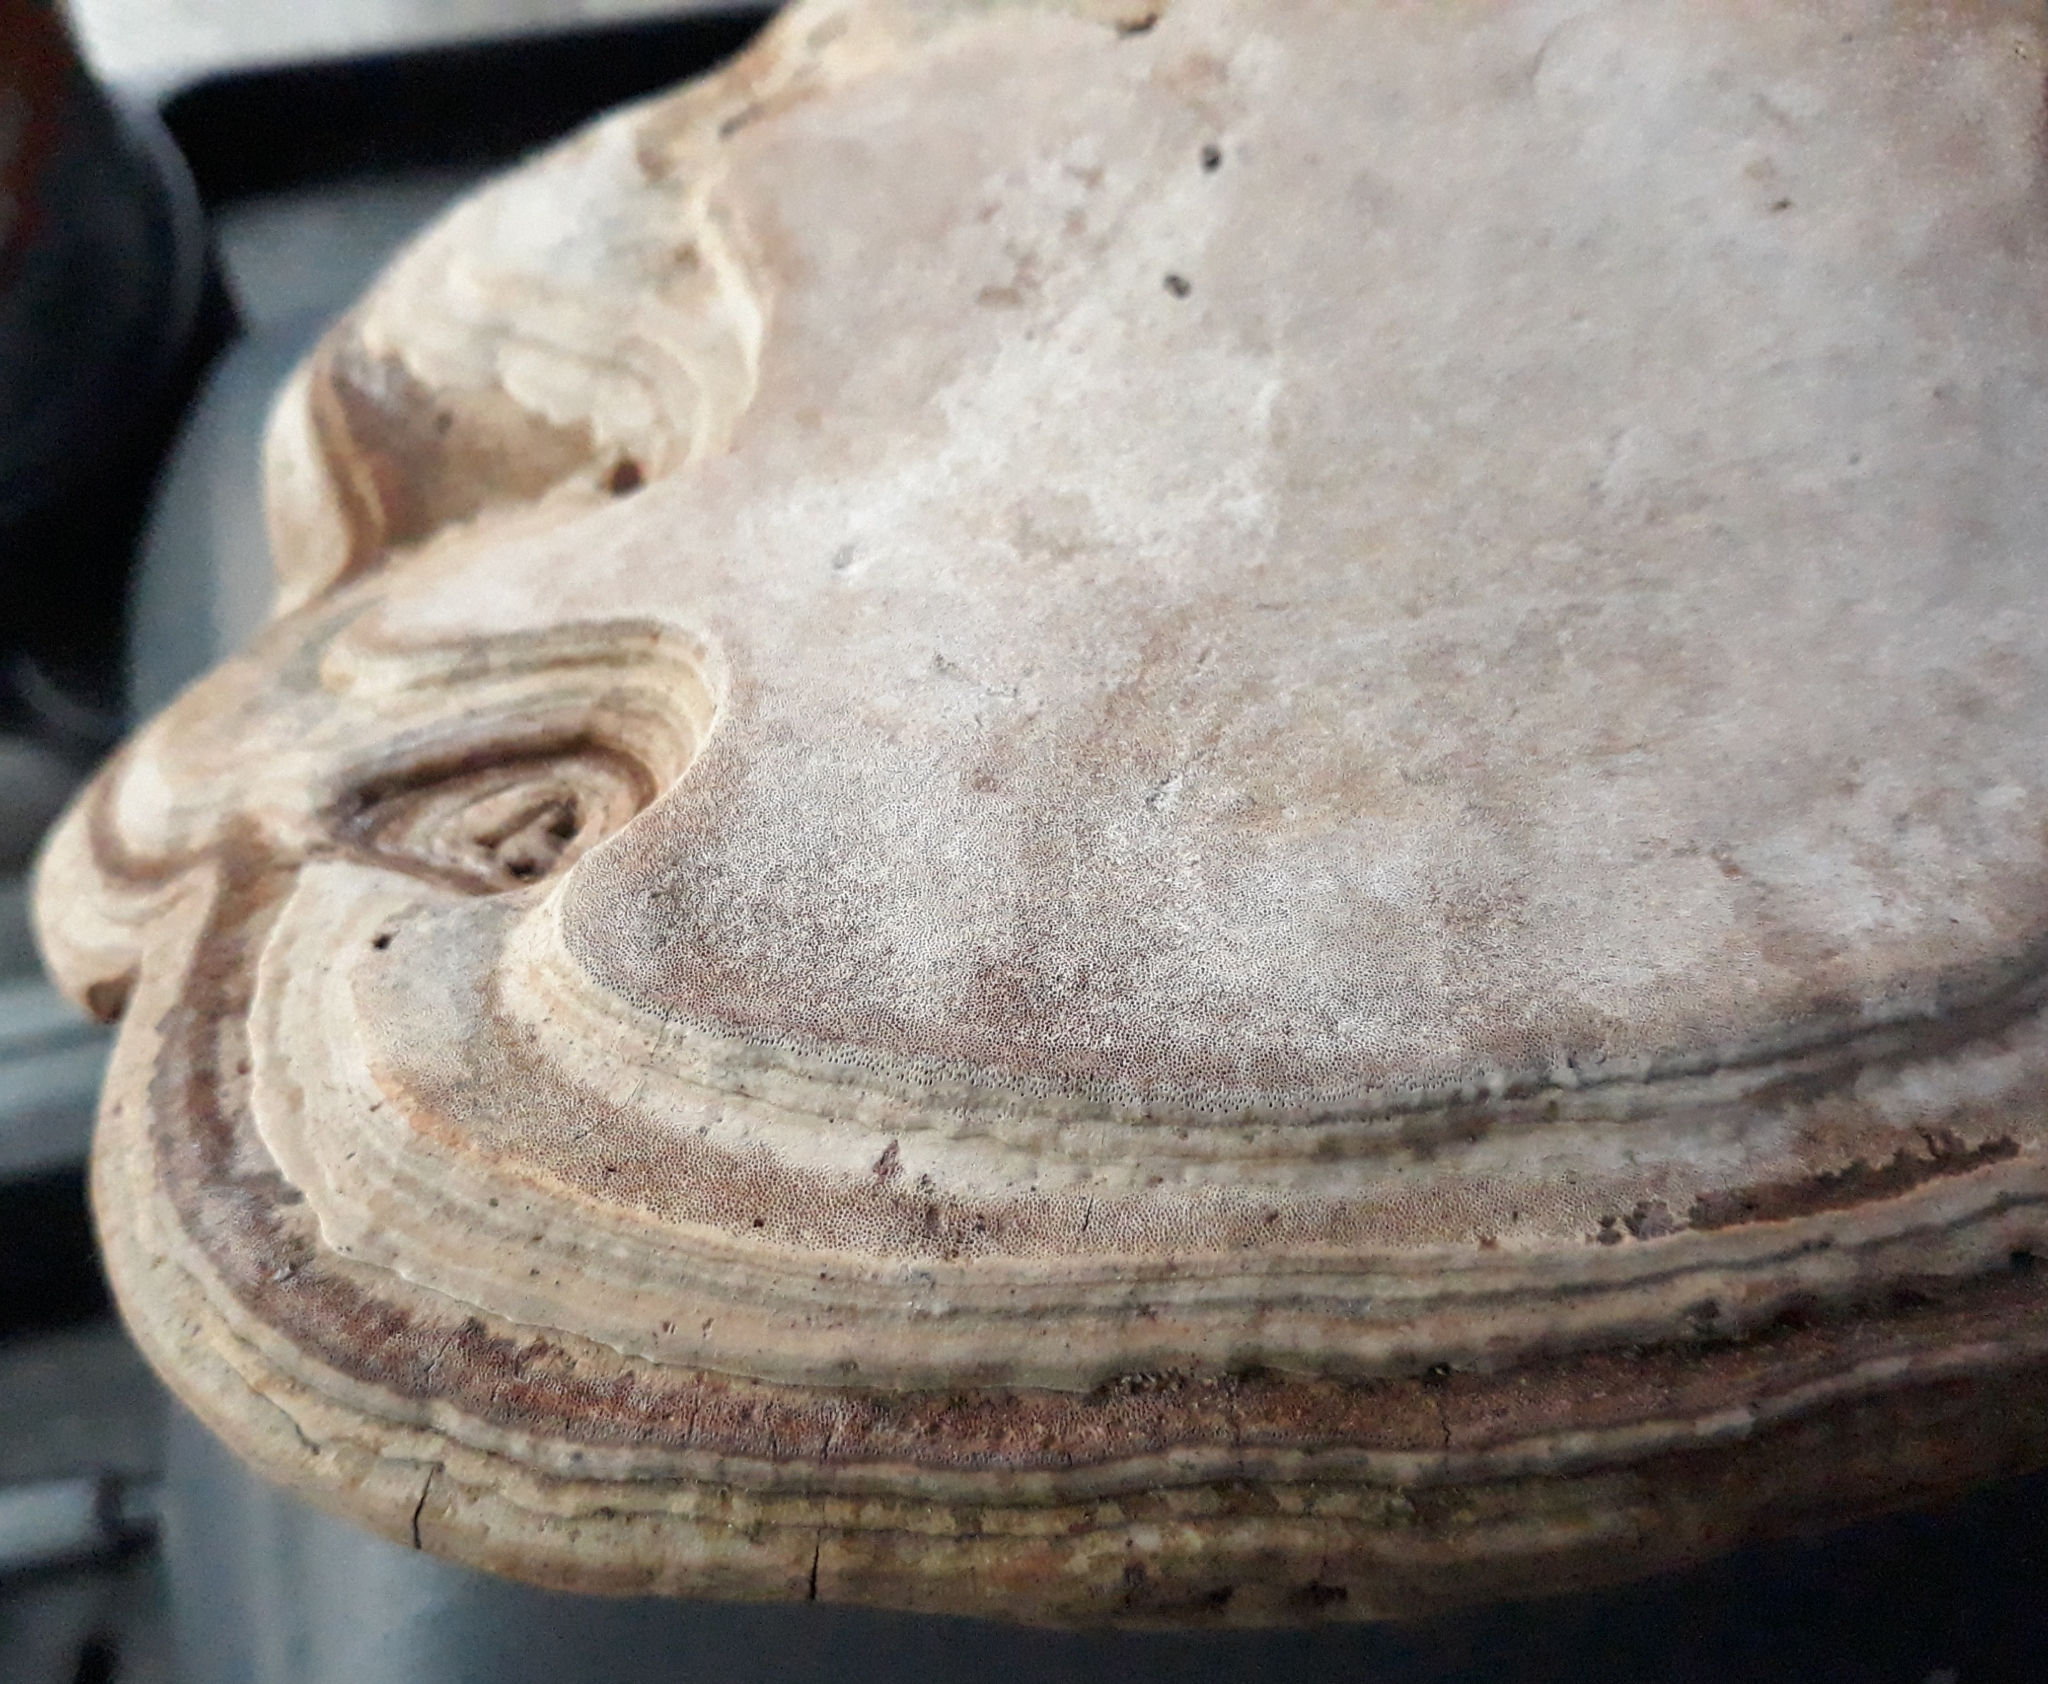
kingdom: Fungi
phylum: Basidiomycota
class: Agaricomycetes
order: Polyporales
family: Polyporaceae
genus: Ganoderma
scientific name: Ganoderma applanatum
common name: Artist's bracket
